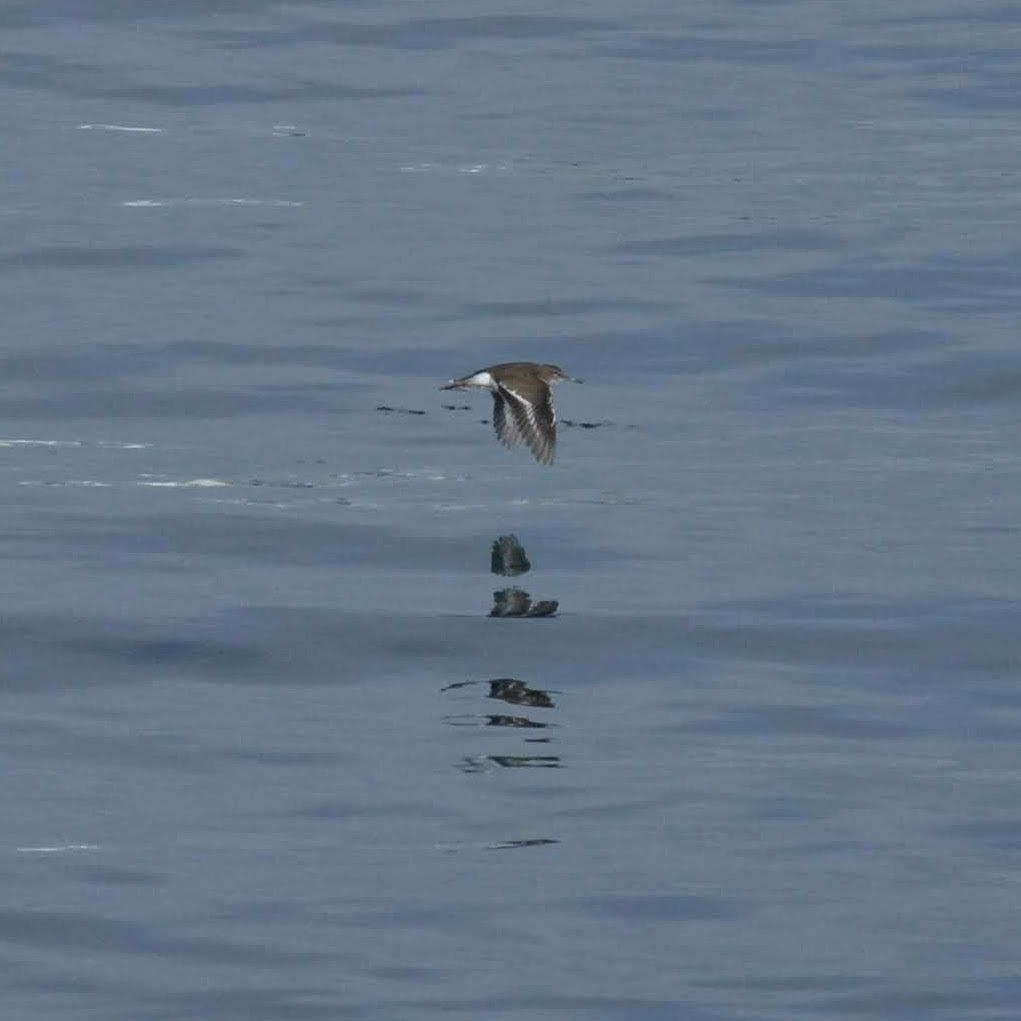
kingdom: Animalia
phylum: Chordata
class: Aves
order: Charadriiformes
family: Scolopacidae
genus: Actitis
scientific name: Actitis hypoleucos
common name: Common sandpiper
